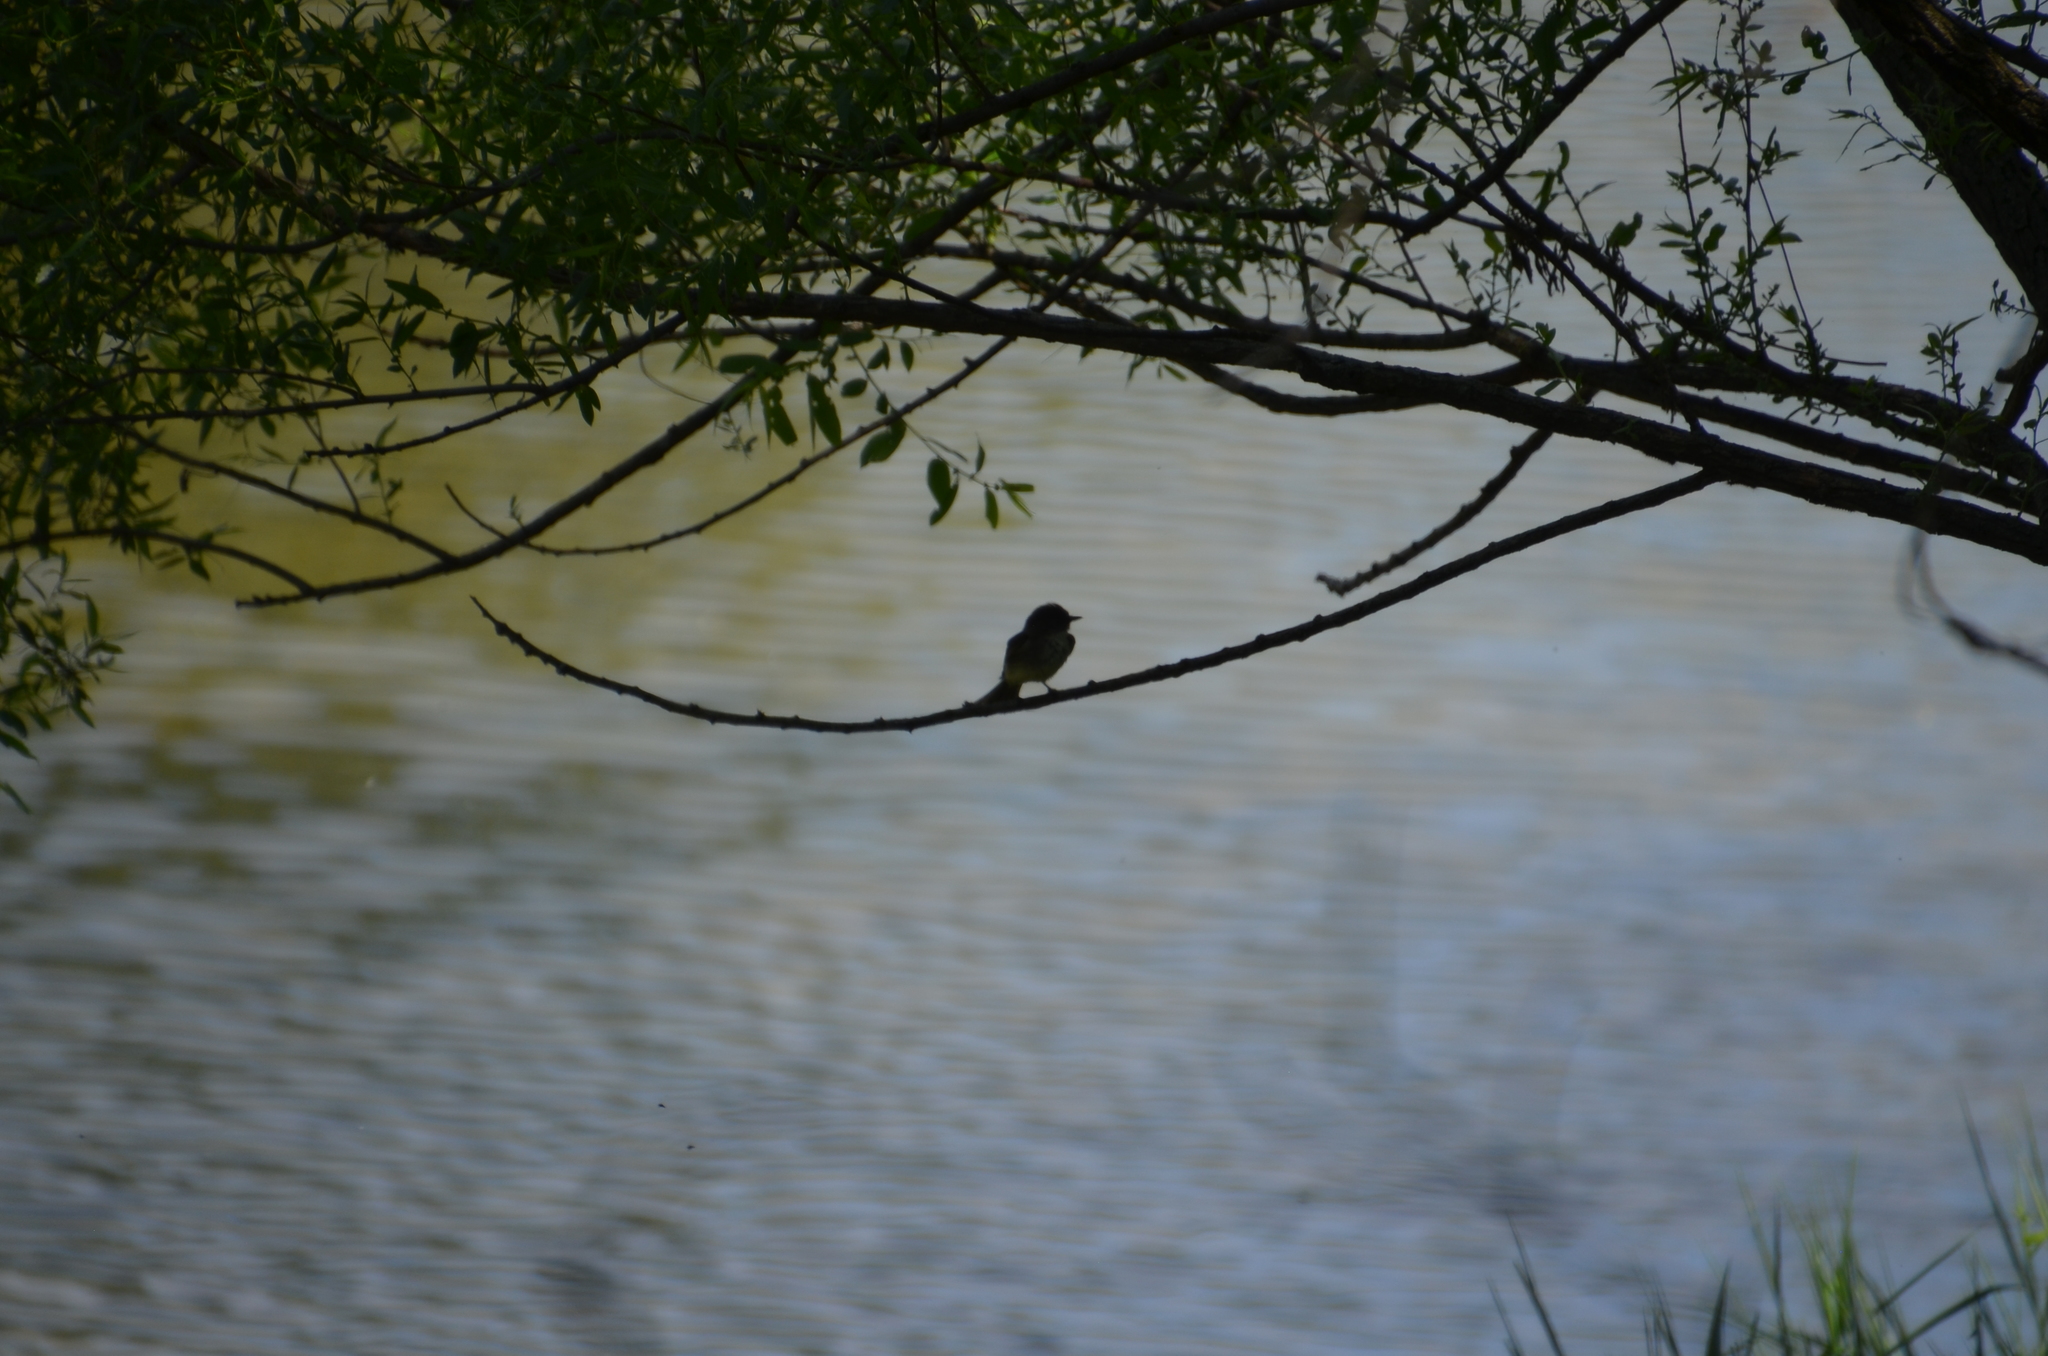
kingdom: Animalia
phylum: Chordata
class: Aves
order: Passeriformes
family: Tyrannidae
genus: Sayornis
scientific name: Sayornis phoebe
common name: Eastern phoebe
